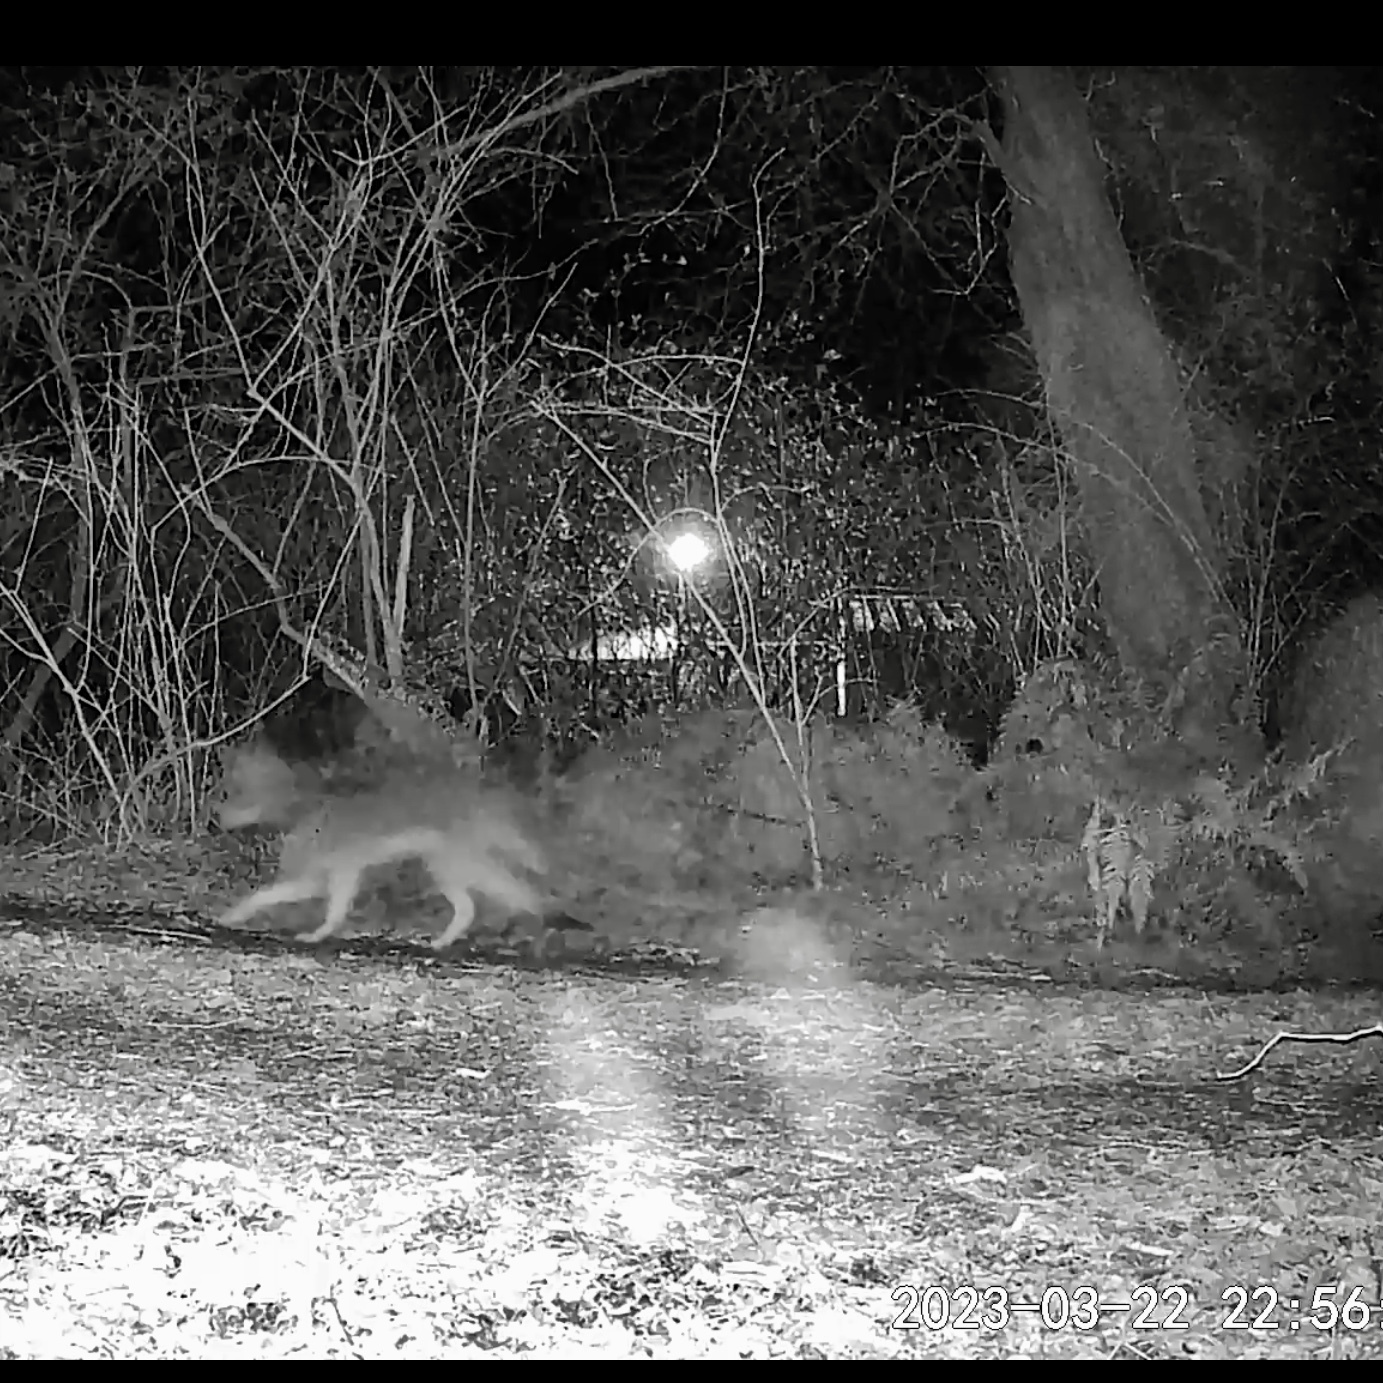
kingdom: Animalia
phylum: Chordata
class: Mammalia
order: Carnivora
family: Canidae
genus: Canis
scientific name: Canis latrans
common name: Coyote
